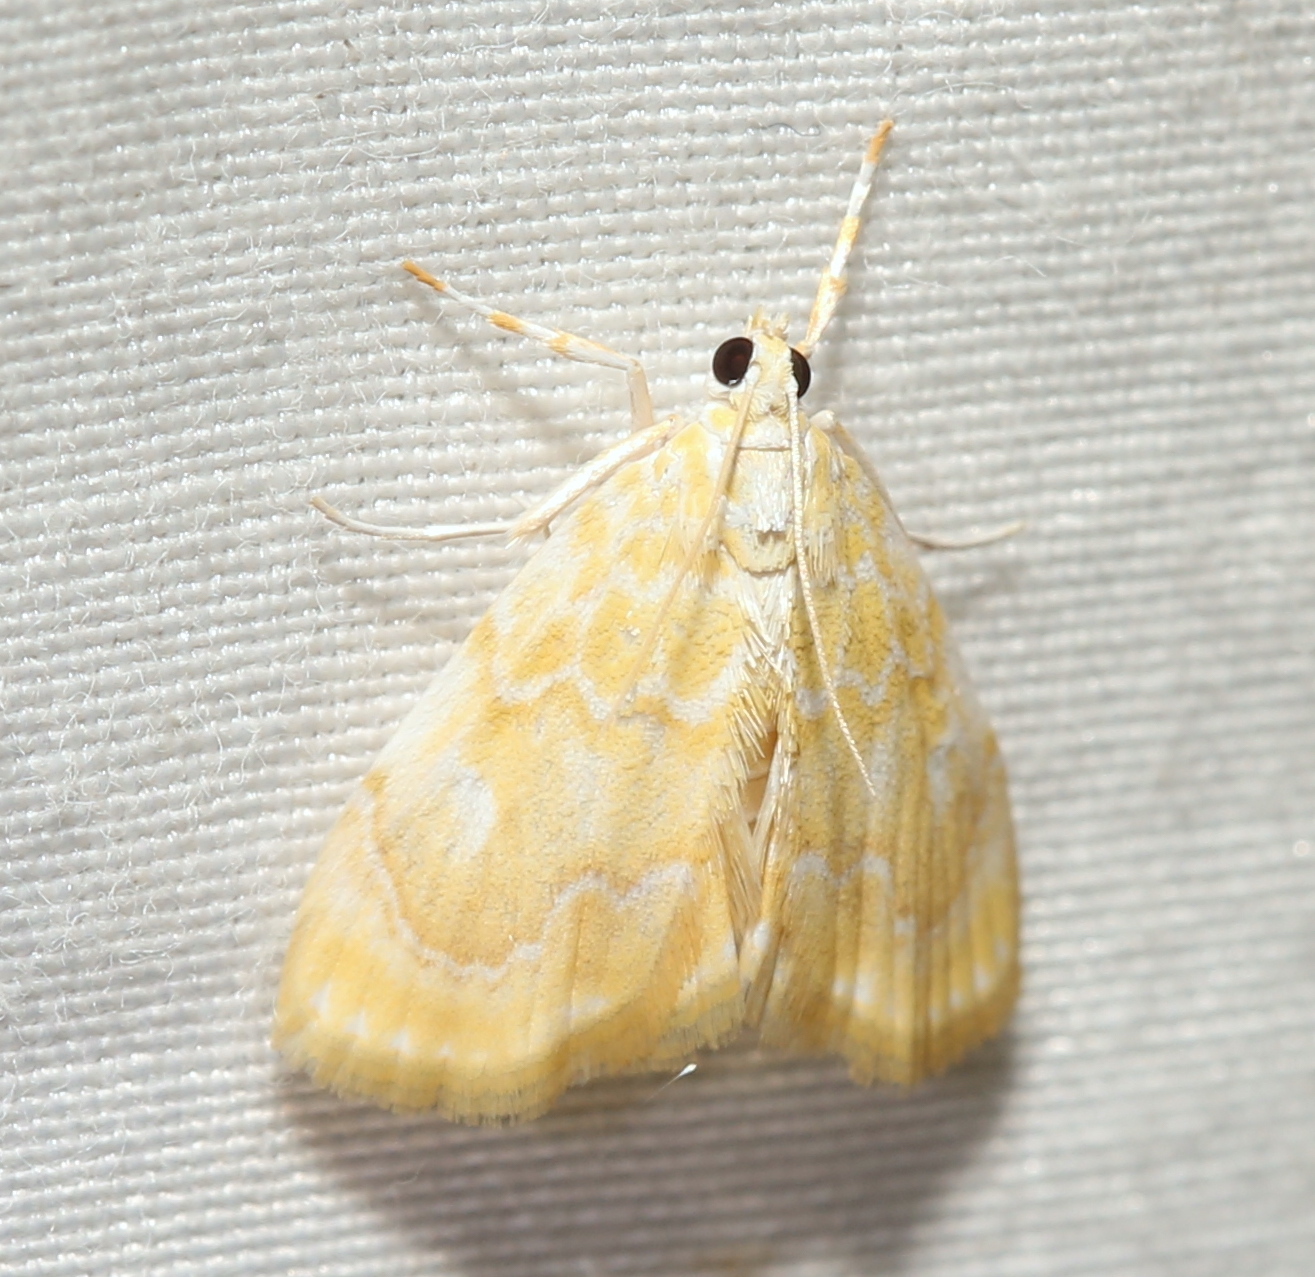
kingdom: Animalia
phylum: Arthropoda
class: Insecta
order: Lepidoptera
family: Crambidae
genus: Glaphyria
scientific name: Glaphyria glaphyralis
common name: Common glaphyria moth
